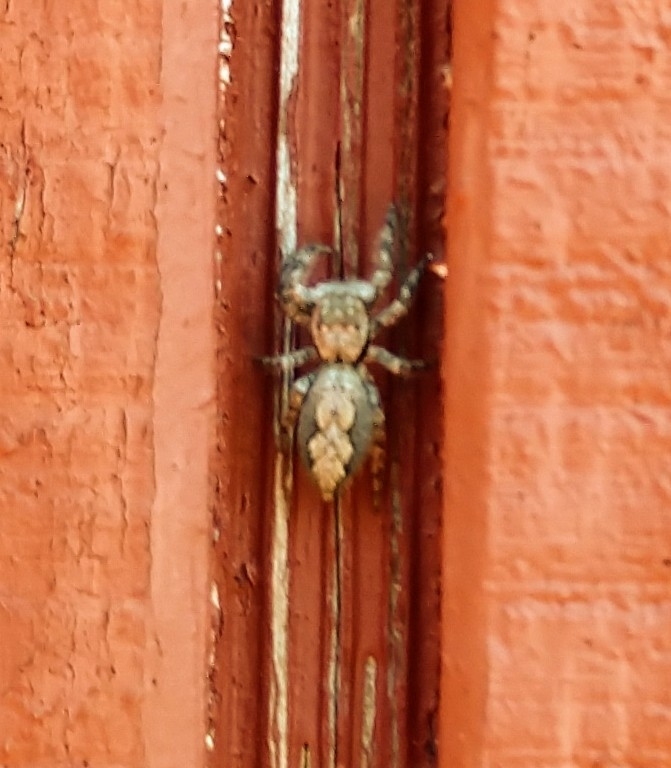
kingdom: Animalia
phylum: Arthropoda
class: Arachnida
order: Araneae
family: Salticidae
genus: Platycryptus
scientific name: Platycryptus undatus
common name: Tan jumping spider
